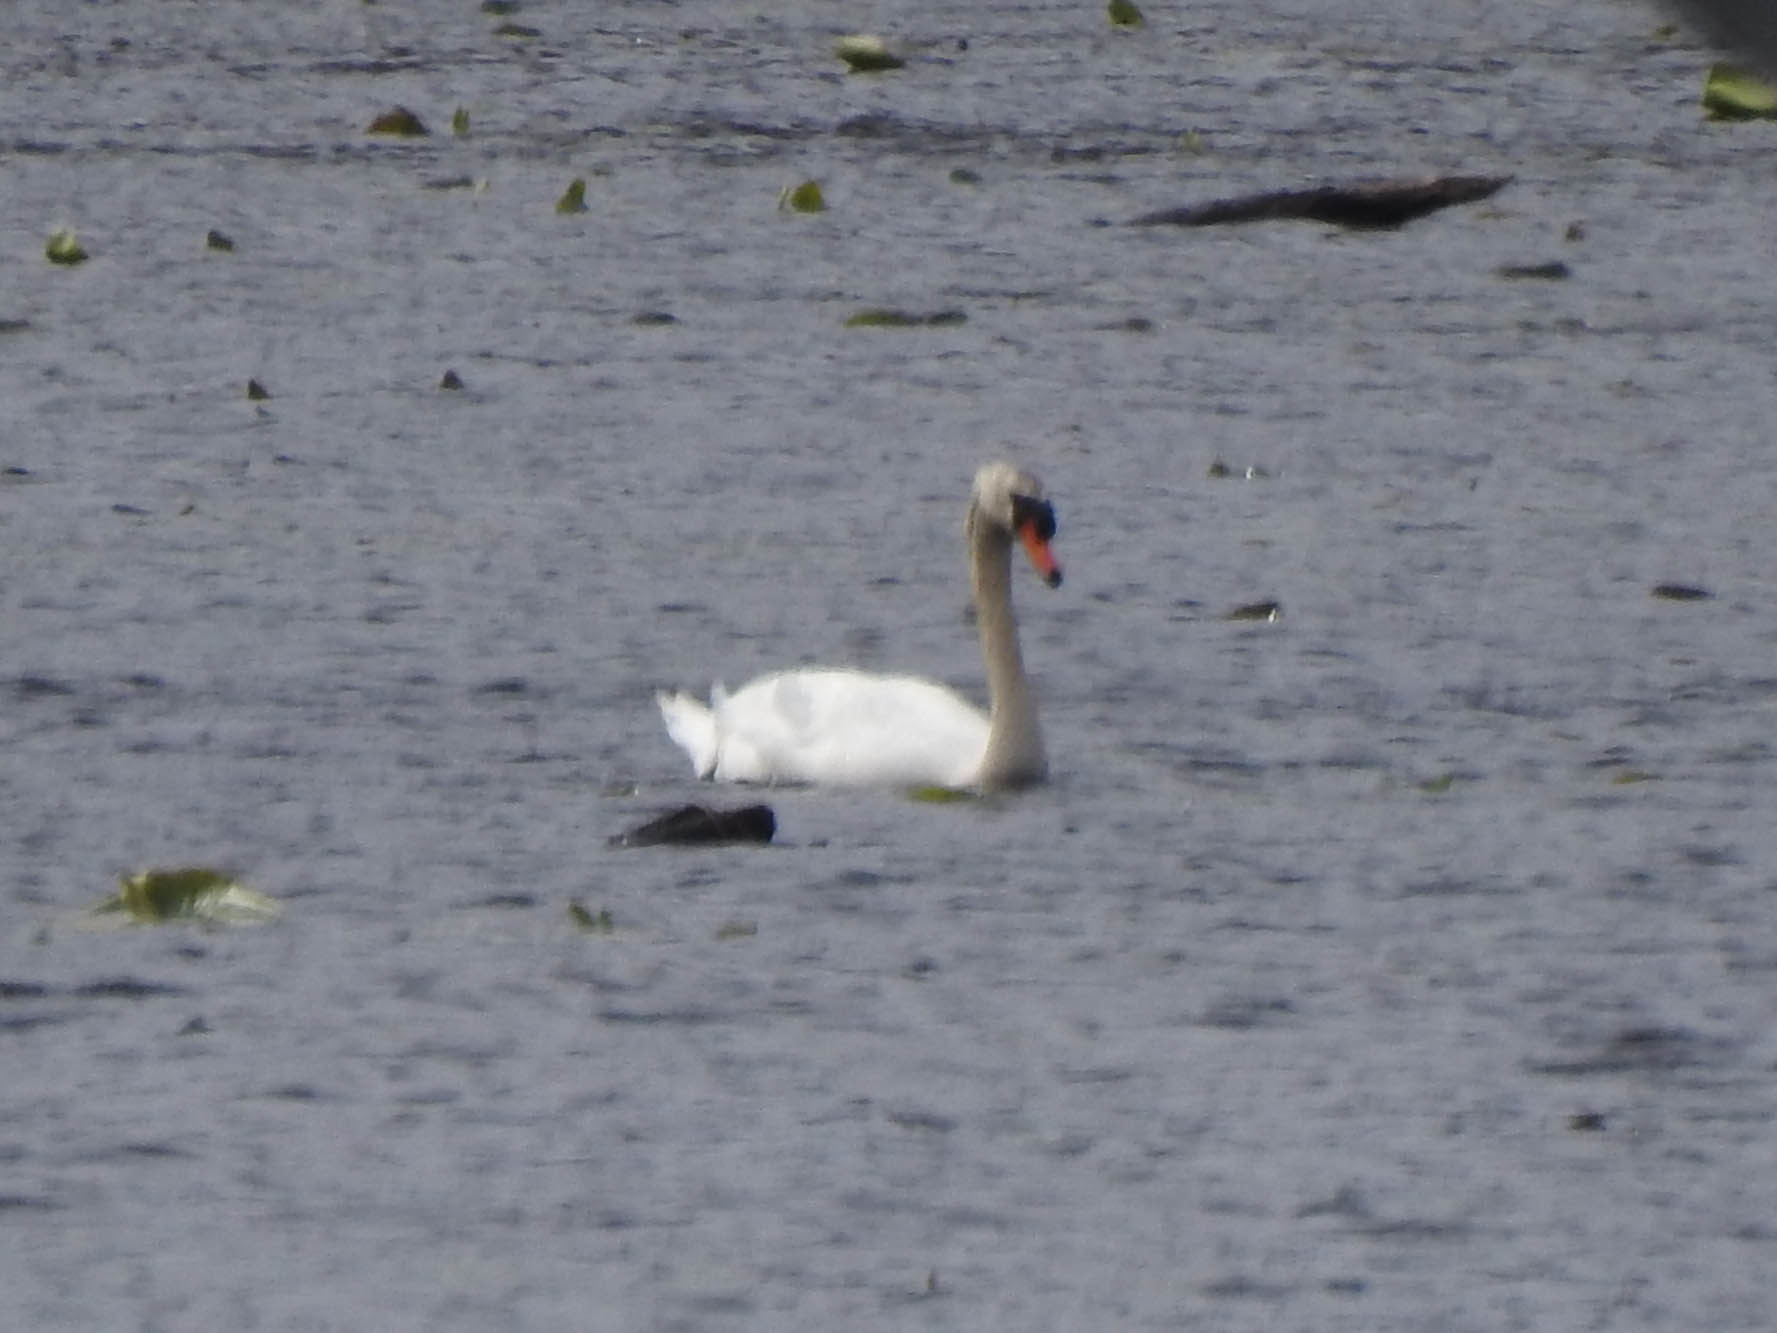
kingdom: Animalia
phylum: Chordata
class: Aves
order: Anseriformes
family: Anatidae
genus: Cygnus
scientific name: Cygnus olor
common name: Mute swan
